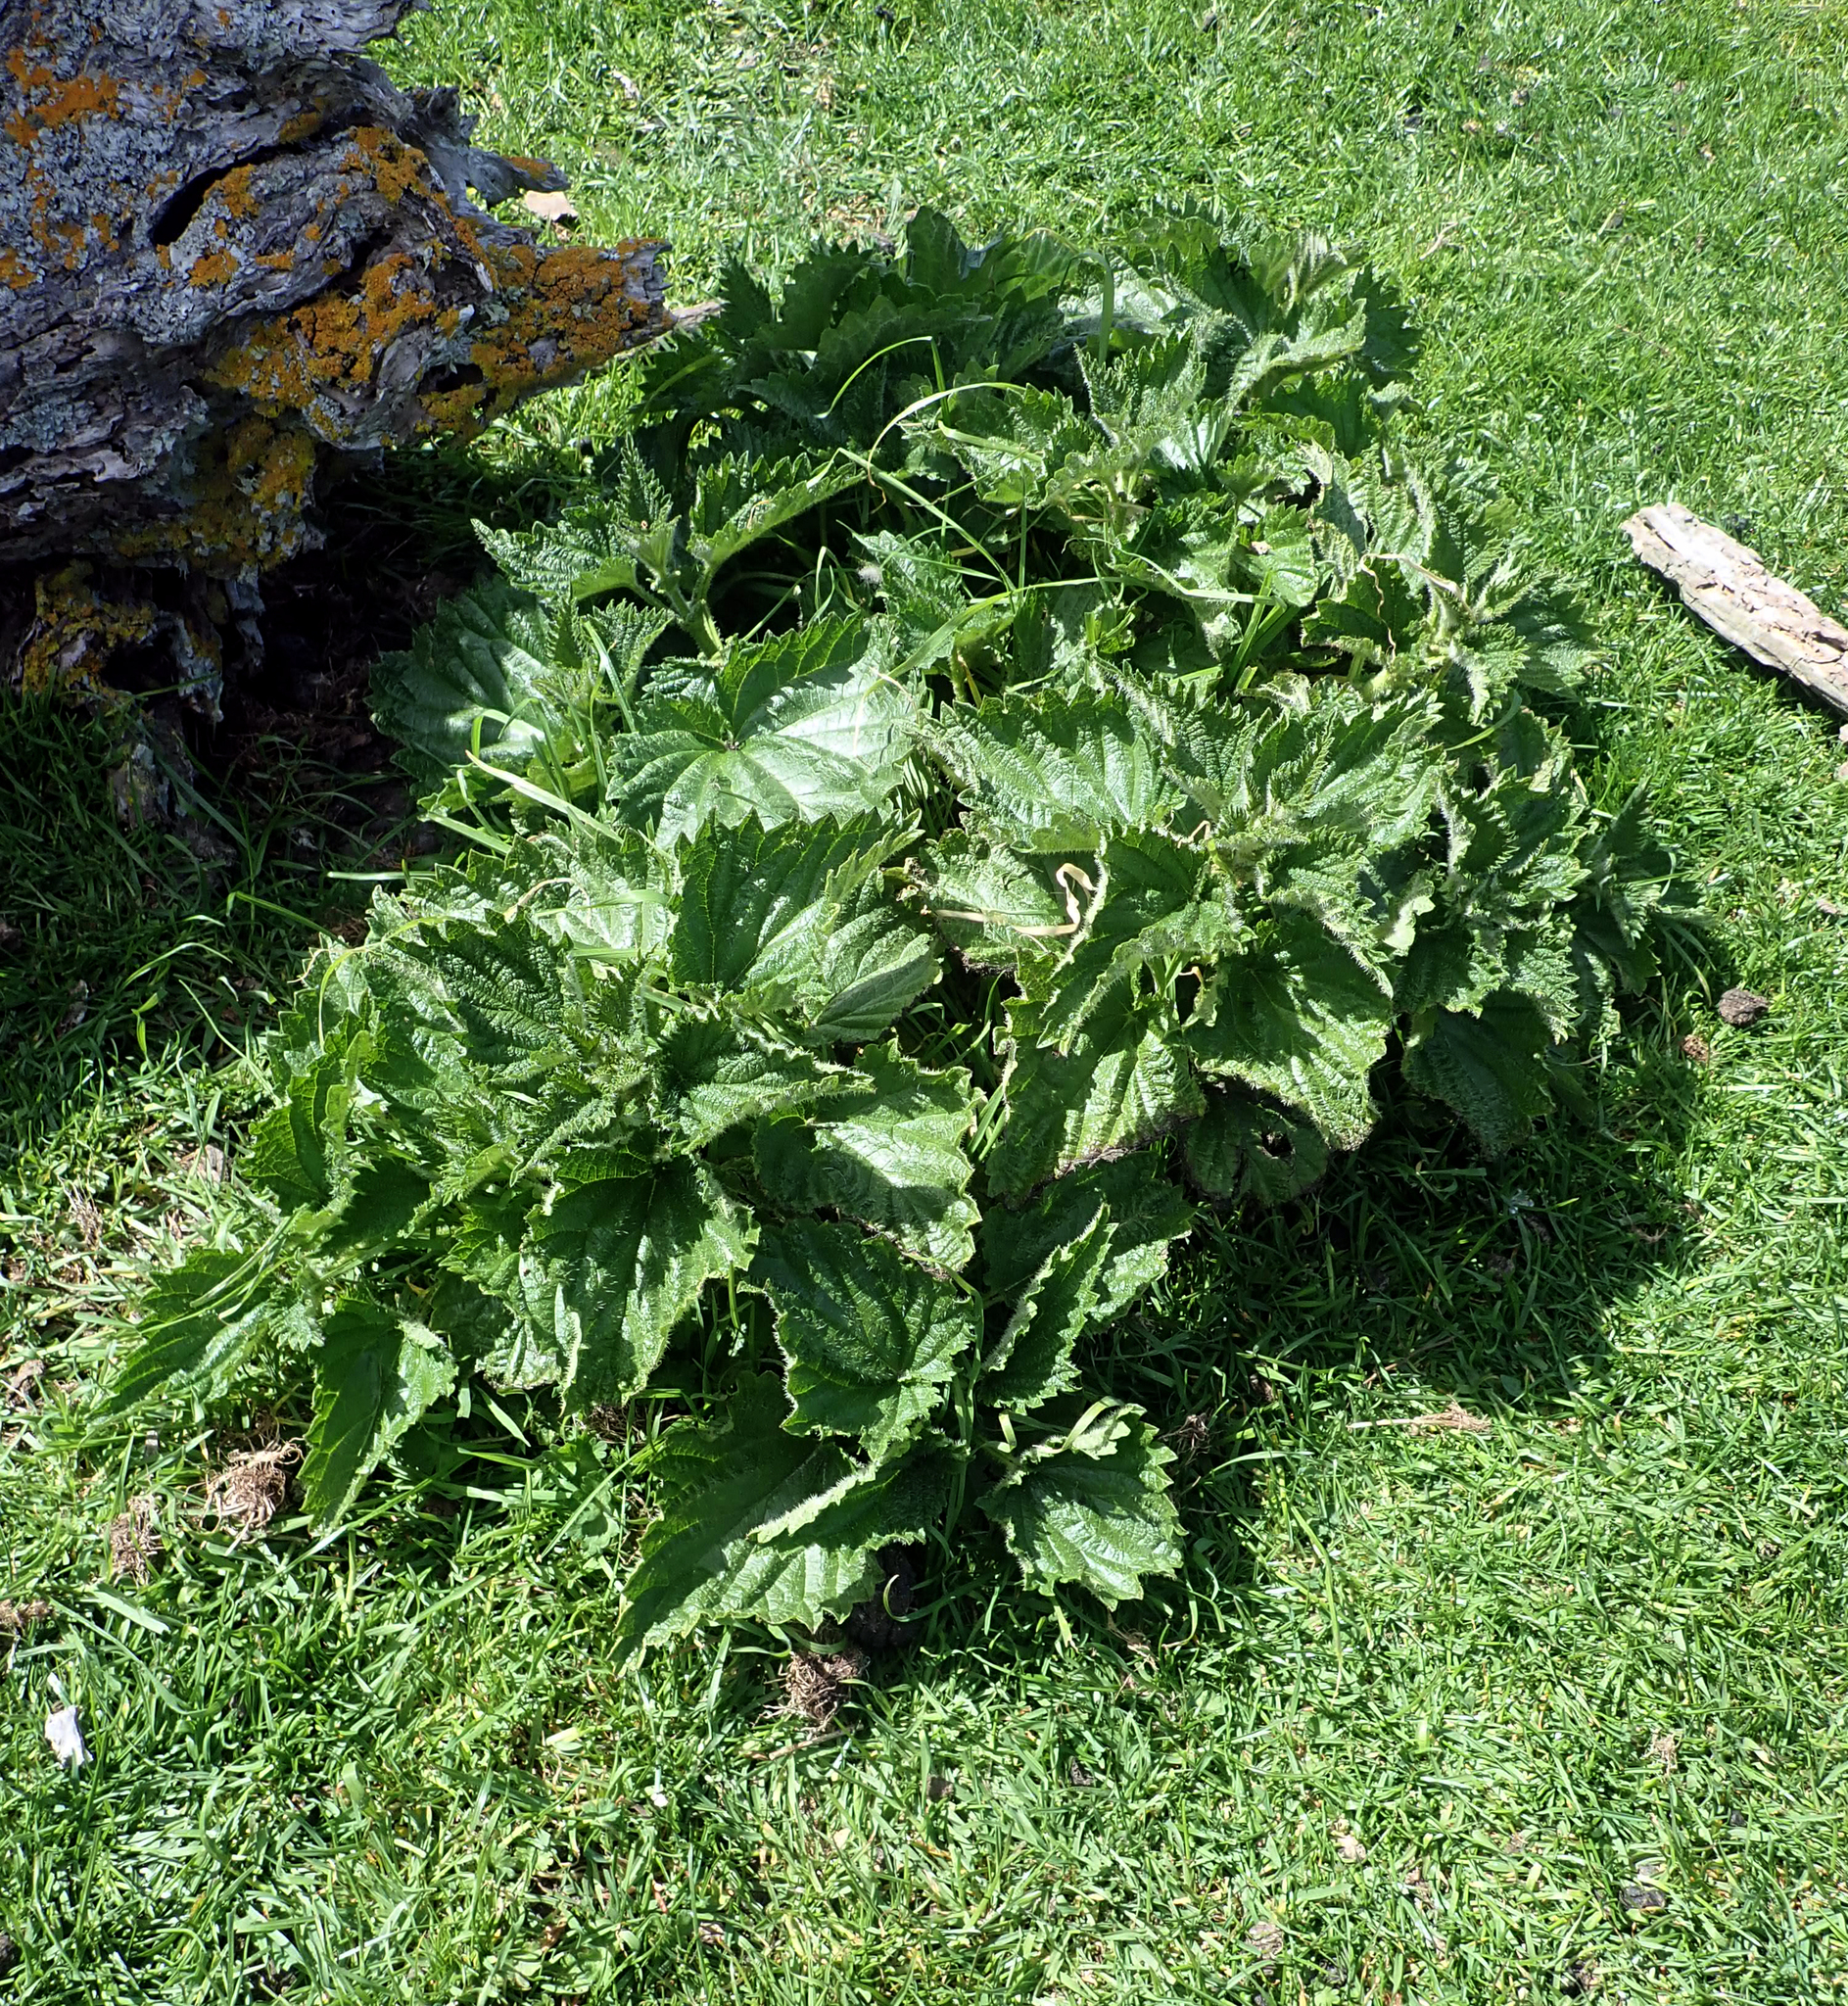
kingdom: Plantae
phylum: Tracheophyta
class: Magnoliopsida
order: Rosales
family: Urticaceae
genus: Urtica
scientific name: Urtica australis
